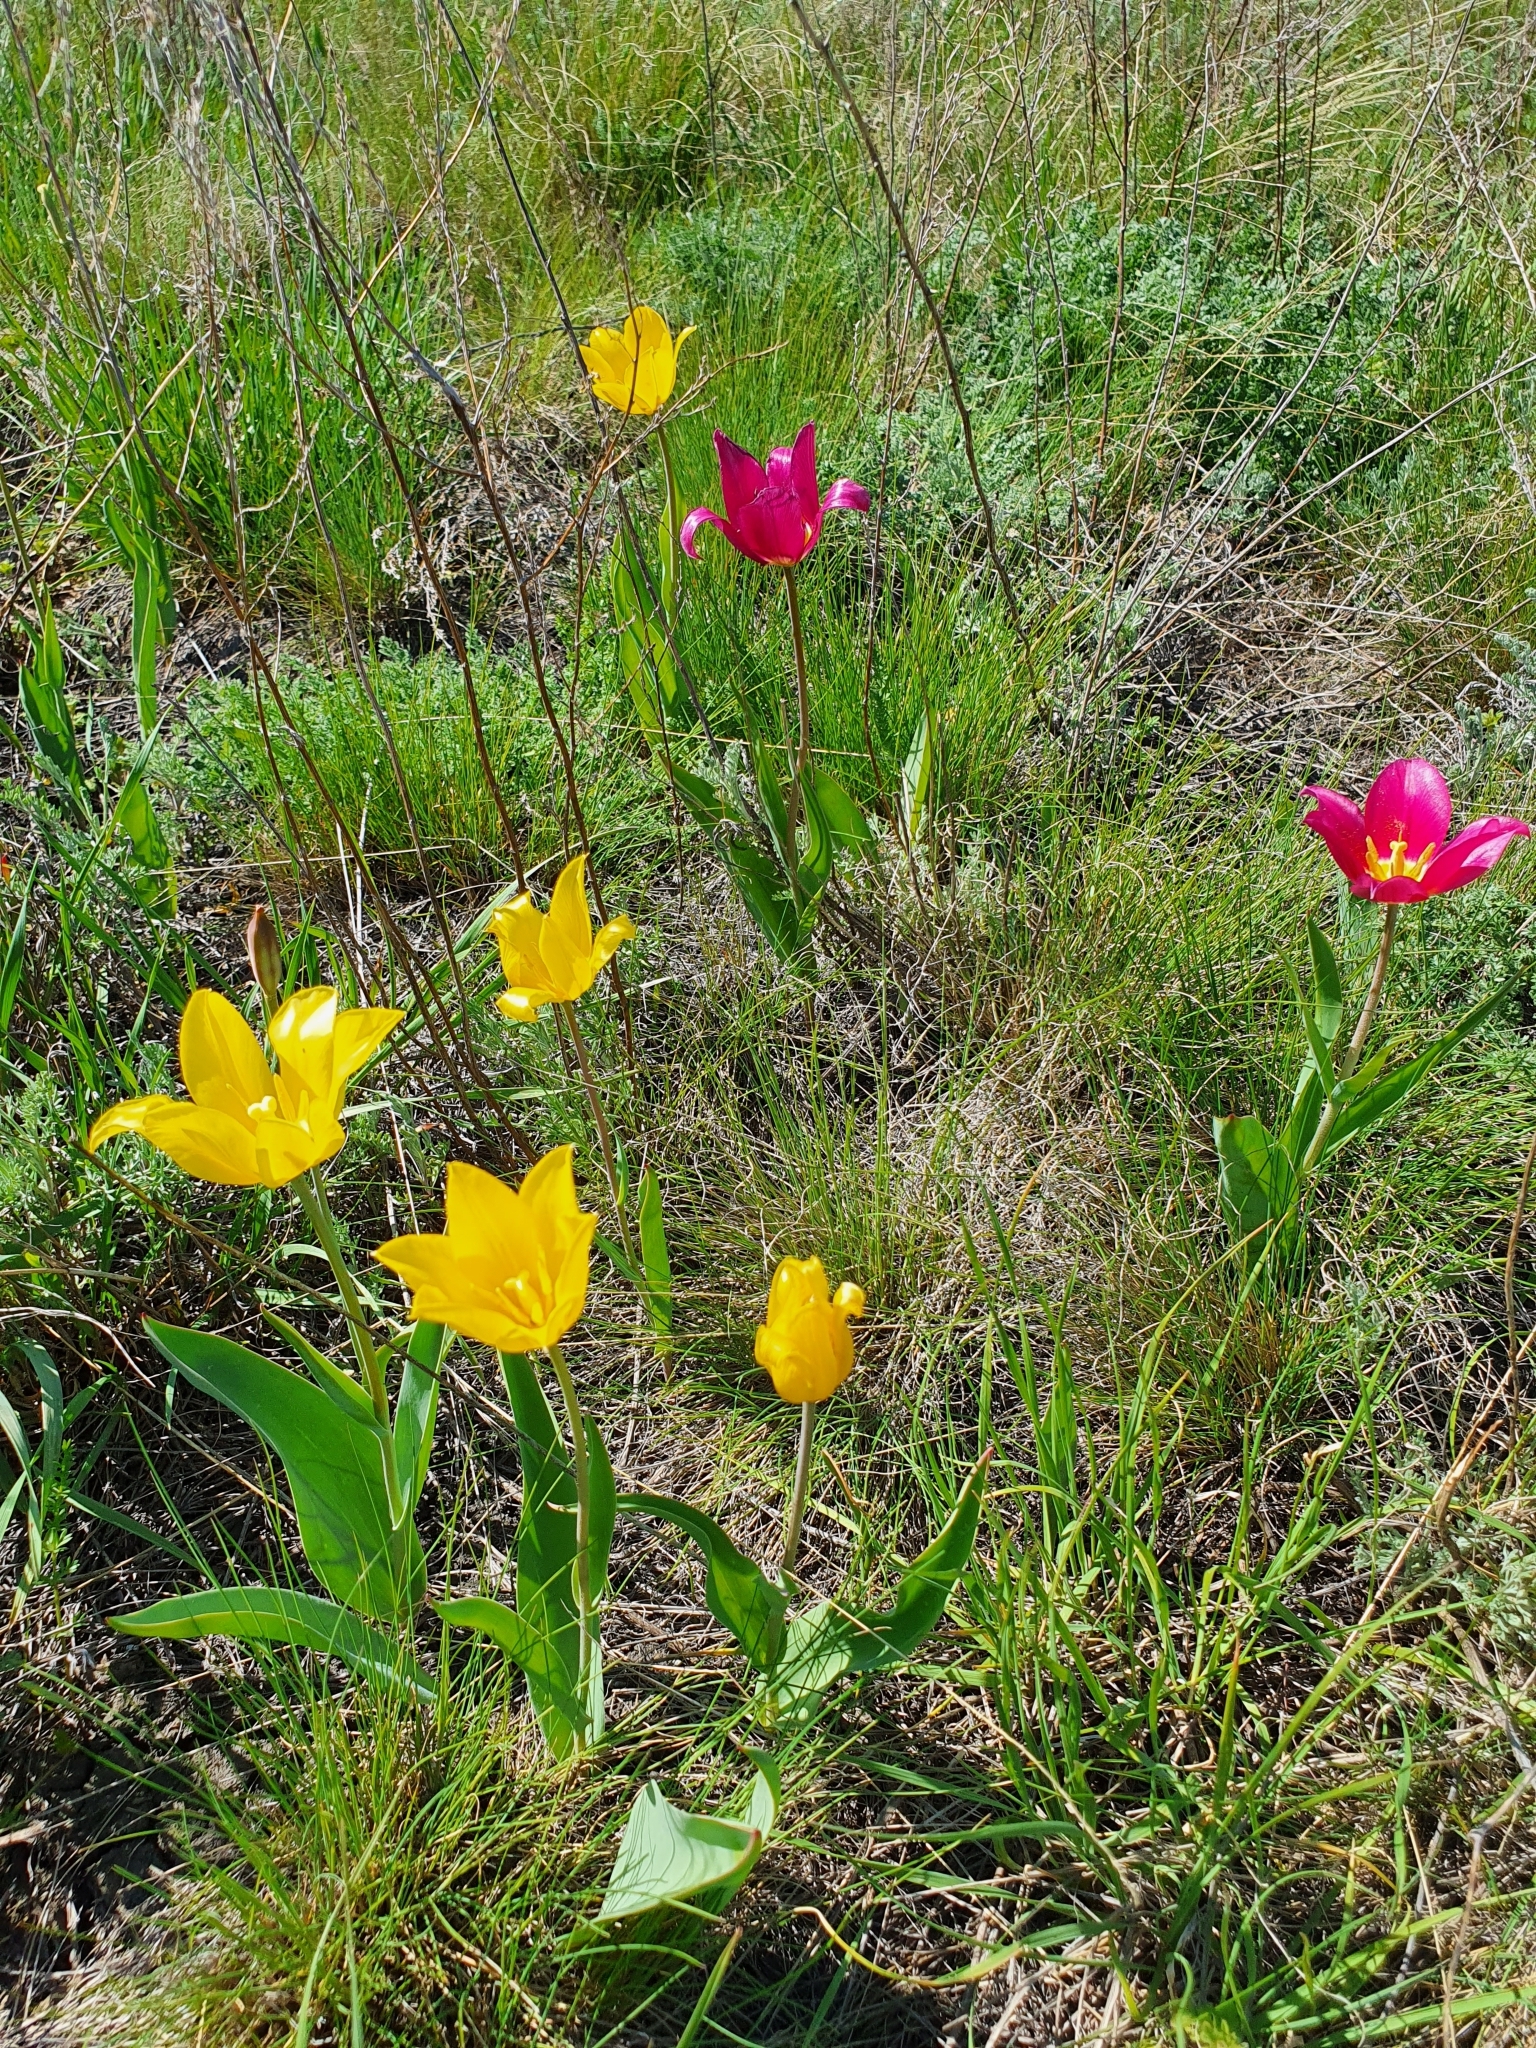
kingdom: Plantae
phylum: Tracheophyta
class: Liliopsida
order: Liliales
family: Liliaceae
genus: Tulipa
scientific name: Tulipa suaveolens
